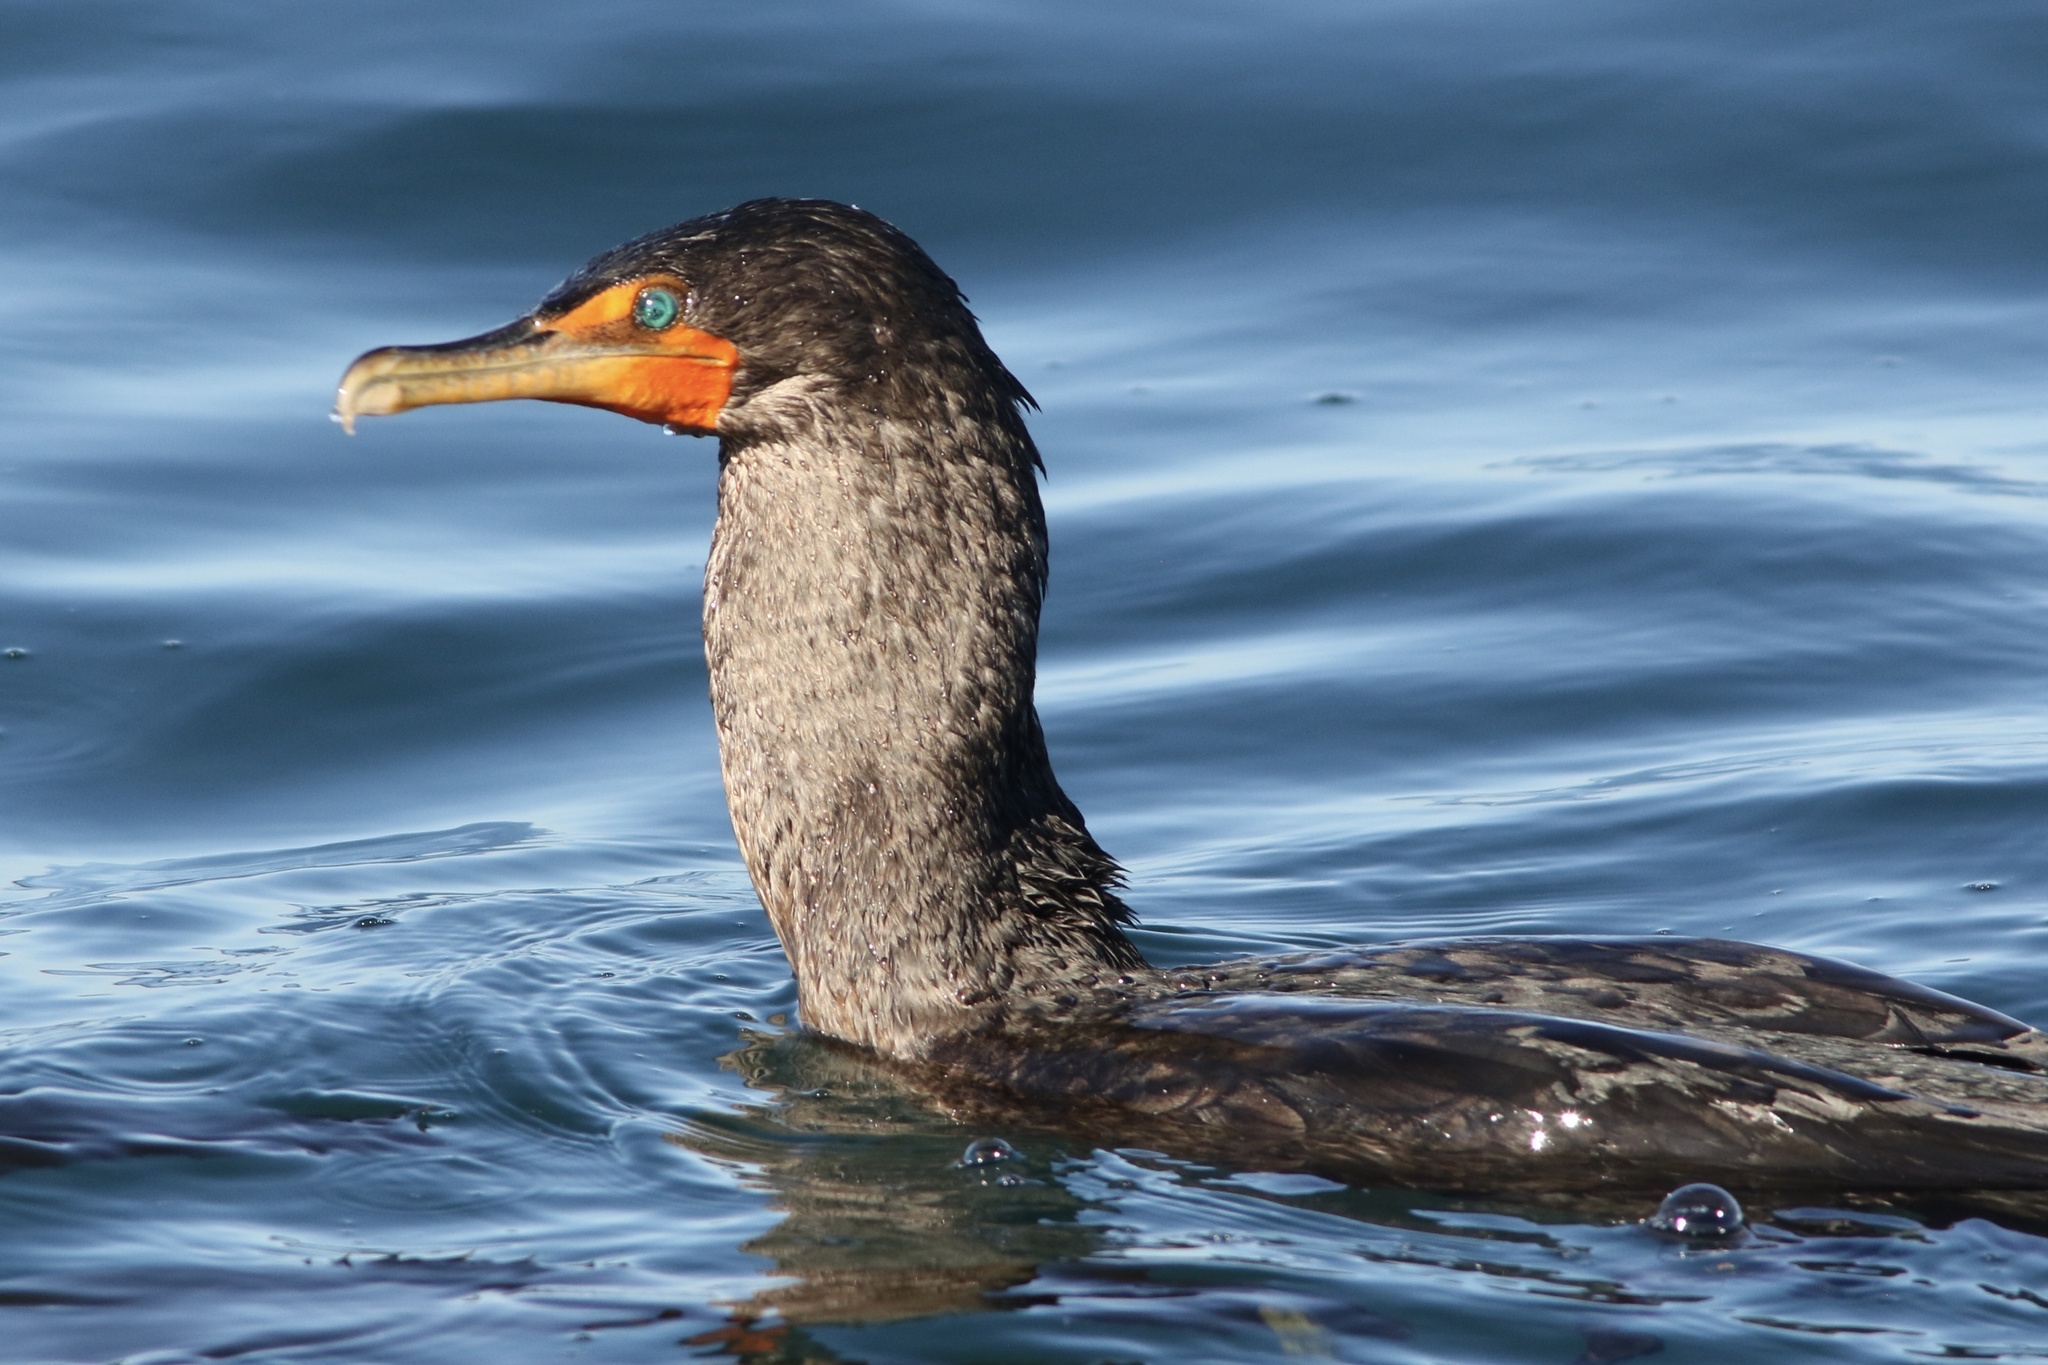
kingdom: Animalia
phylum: Chordata
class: Aves
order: Suliformes
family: Phalacrocoracidae
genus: Phalacrocorax
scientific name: Phalacrocorax auritus
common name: Double-crested cormorant
